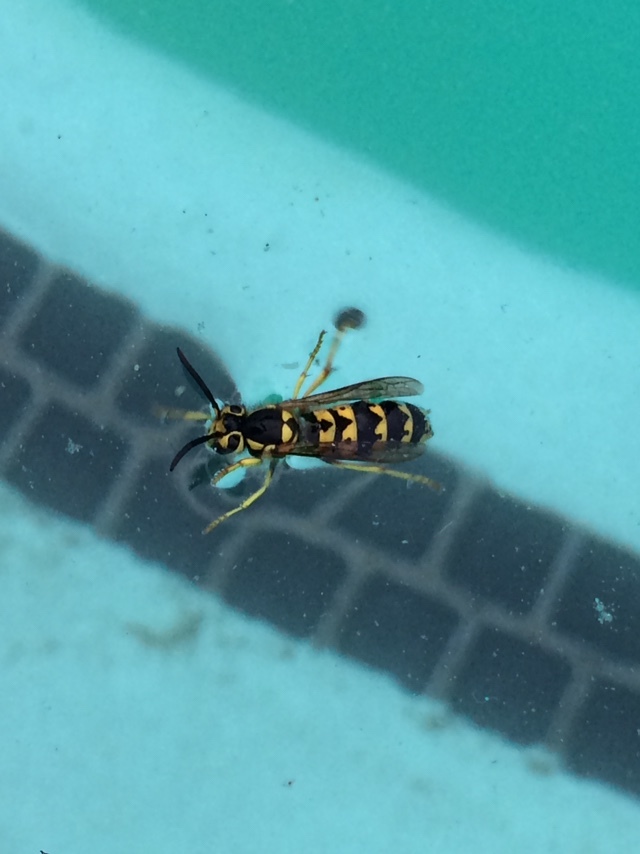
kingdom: Animalia
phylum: Arthropoda
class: Insecta
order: Hymenoptera
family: Vespidae
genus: Vespula
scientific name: Vespula pensylvanica
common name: Western yellowjacket
